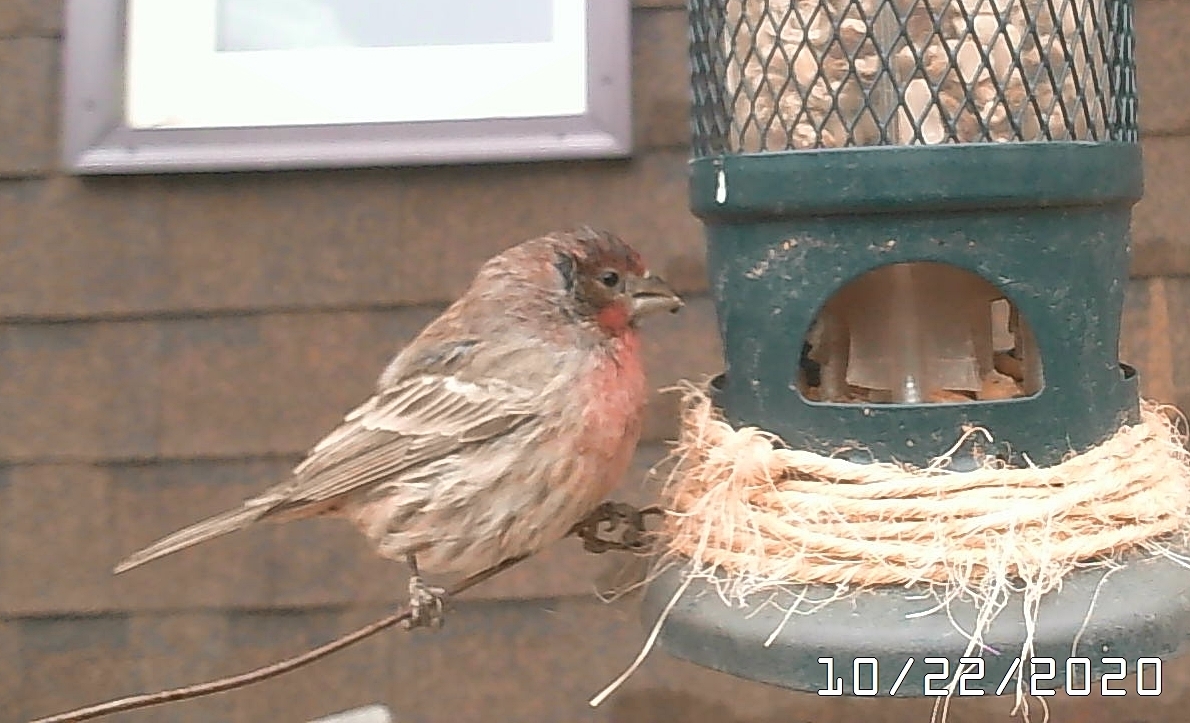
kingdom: Animalia
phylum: Chordata
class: Aves
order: Passeriformes
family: Fringillidae
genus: Haemorhous
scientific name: Haemorhous mexicanus
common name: House finch
